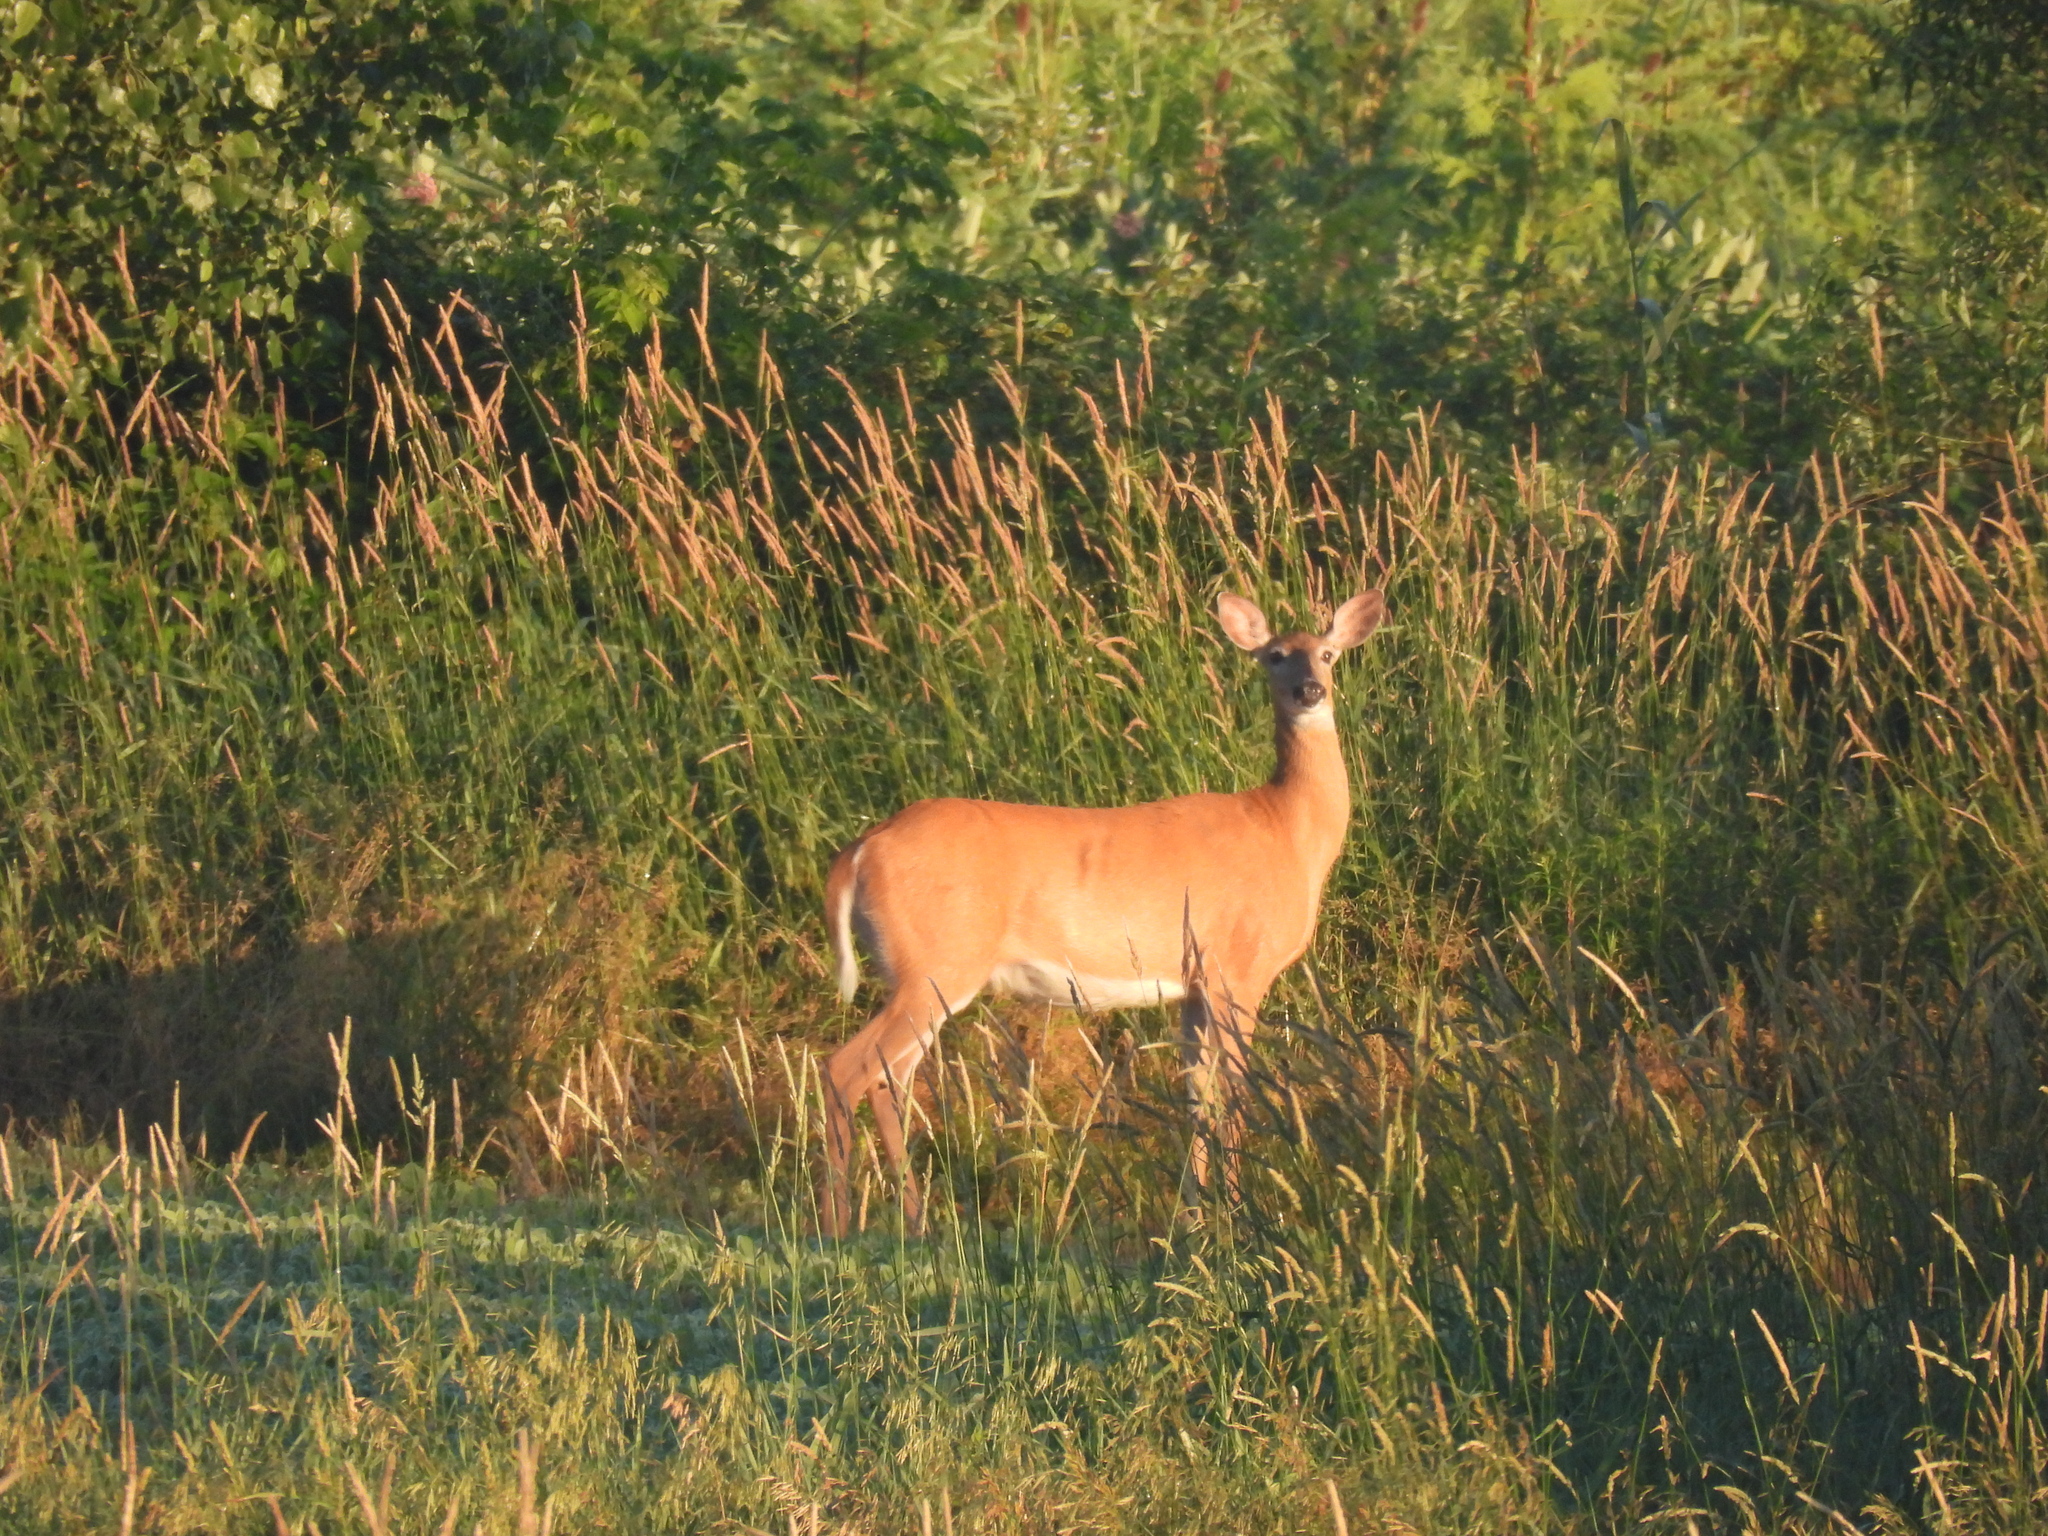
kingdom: Animalia
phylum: Chordata
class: Mammalia
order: Artiodactyla
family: Cervidae
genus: Odocoileus
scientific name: Odocoileus virginianus
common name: White-tailed deer
